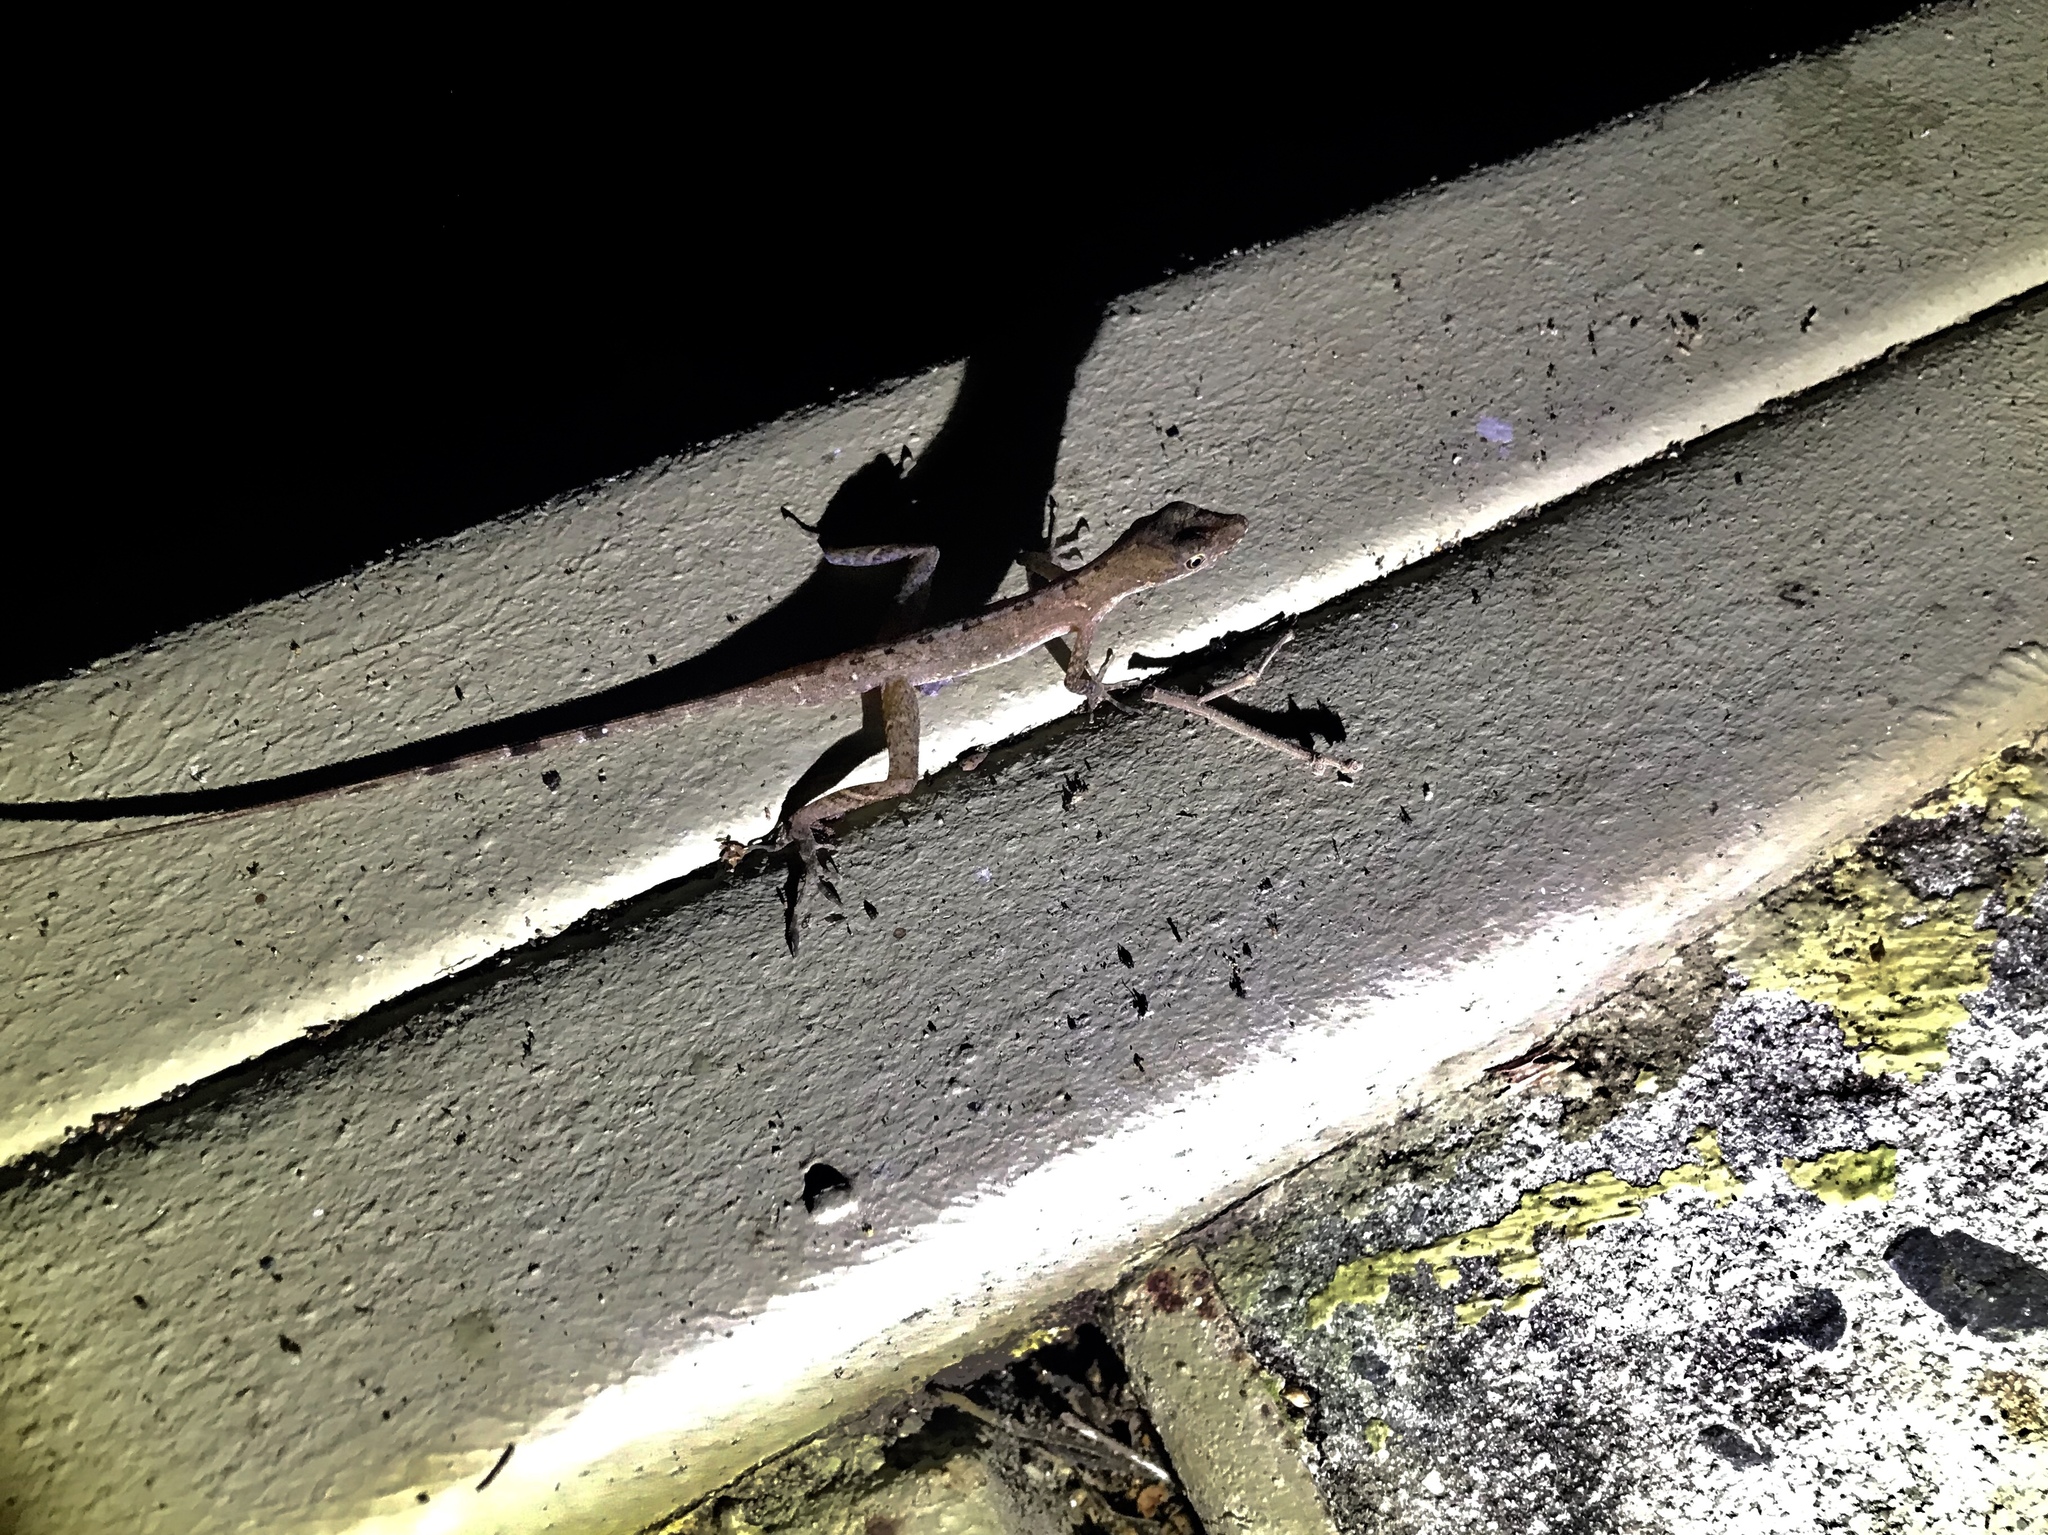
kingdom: Animalia
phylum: Chordata
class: Squamata
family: Dactyloidae
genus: Anolis
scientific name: Anolis apletophallus
